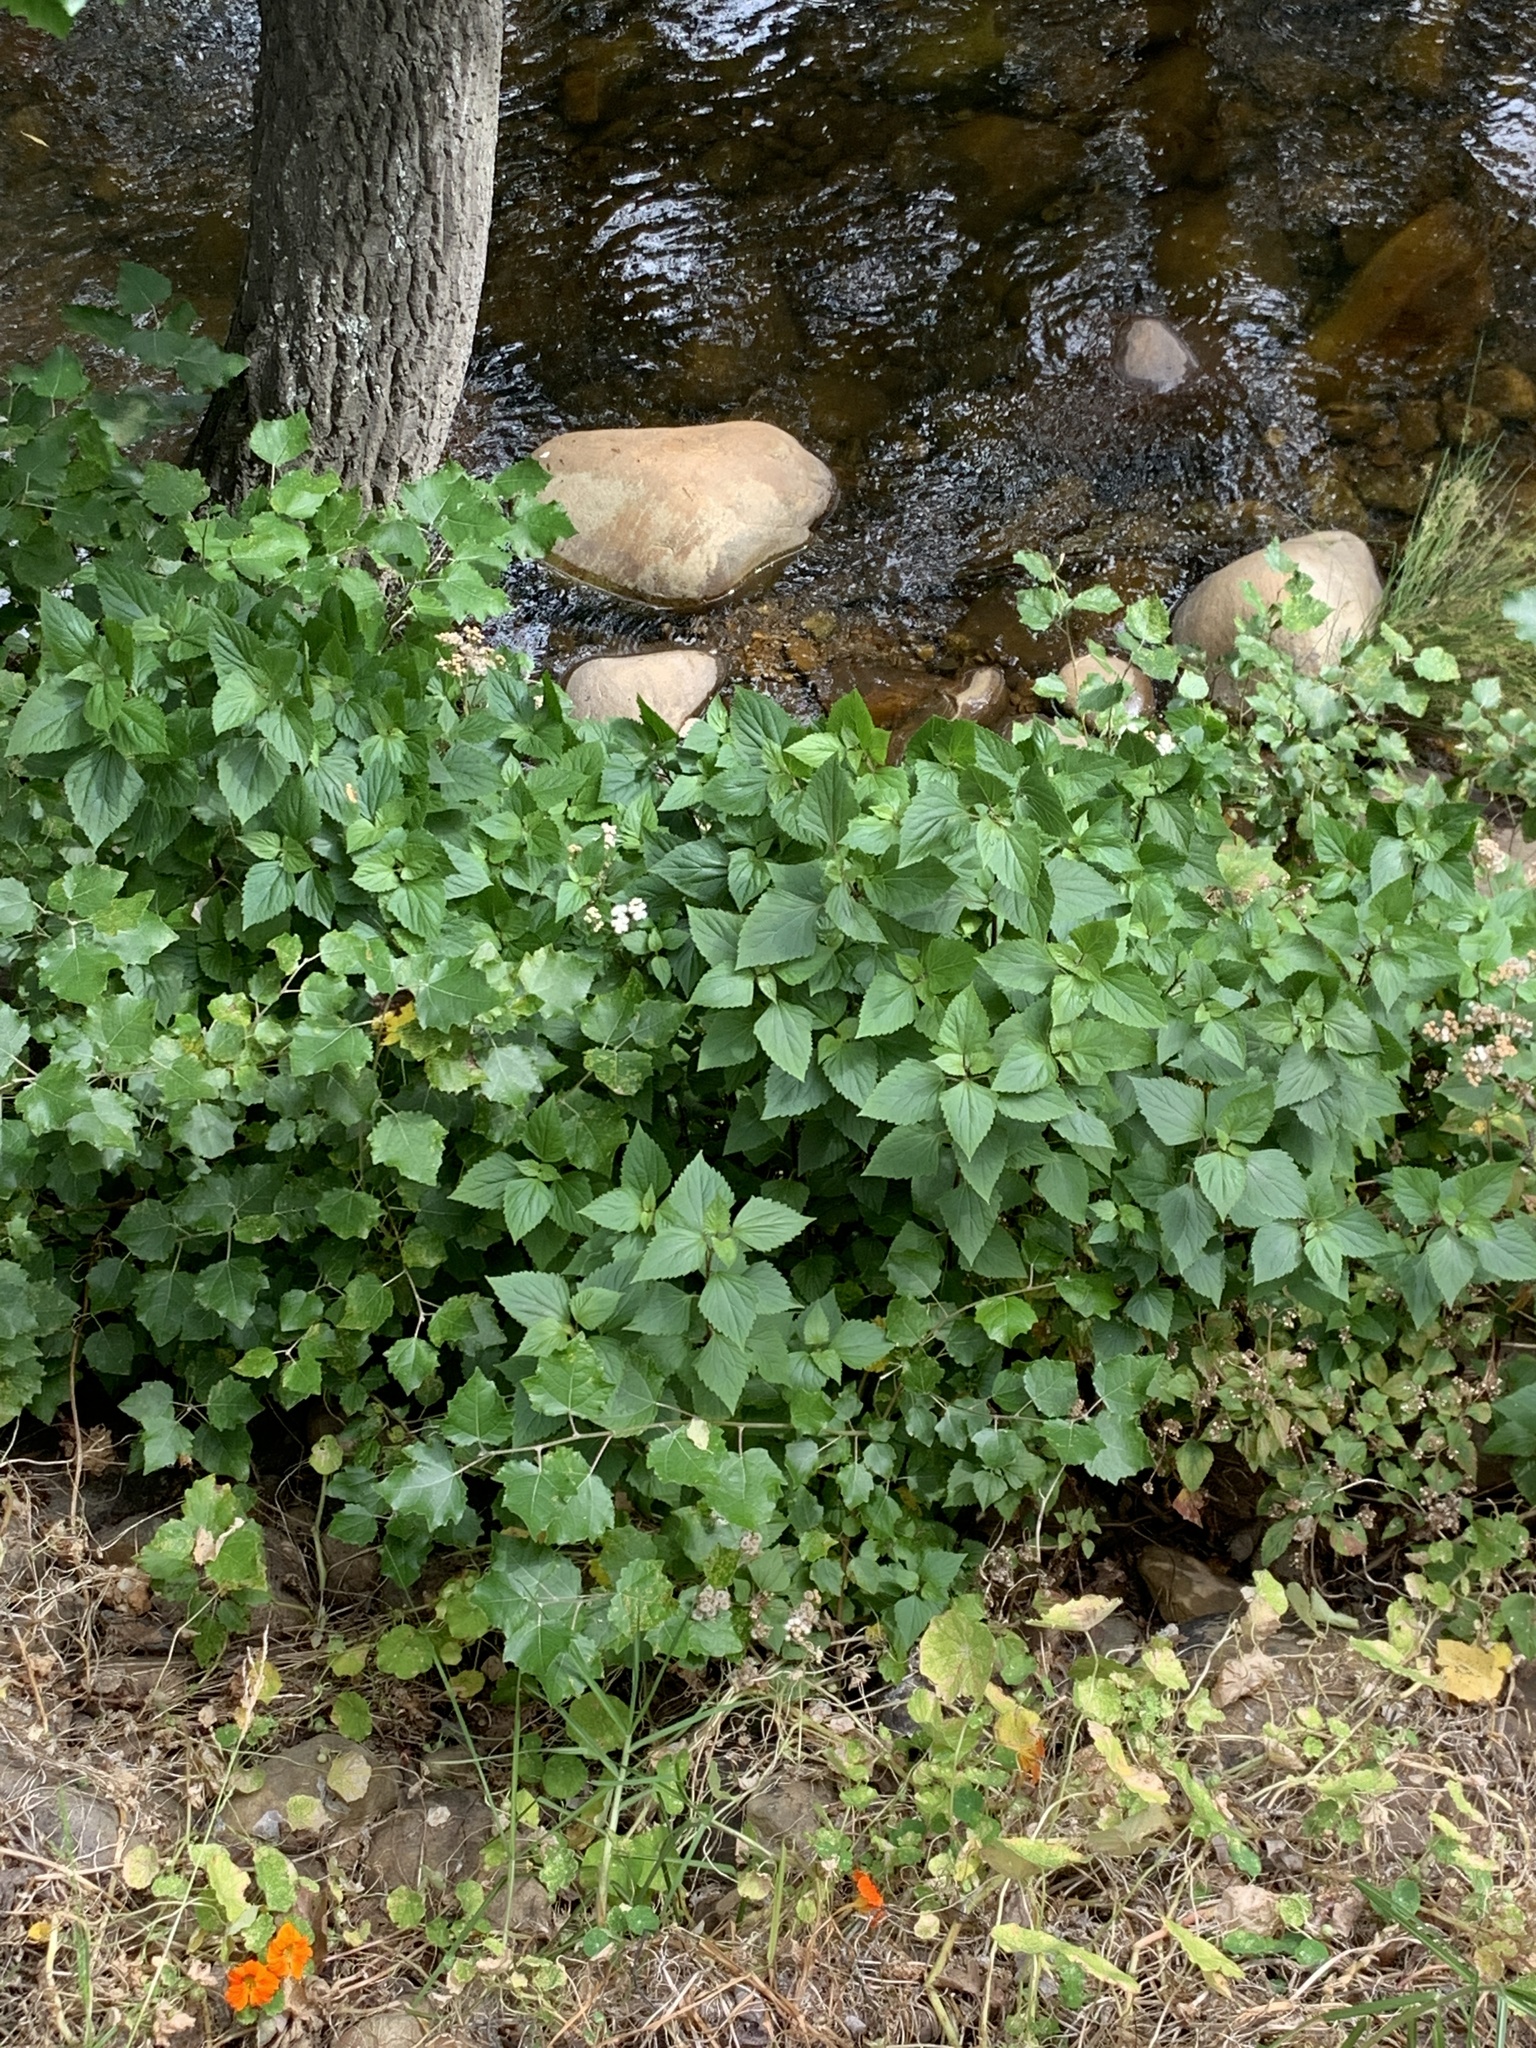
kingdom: Plantae
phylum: Tracheophyta
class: Magnoliopsida
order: Asterales
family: Asteraceae
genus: Ageratina
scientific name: Ageratina adenophora
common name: Sticky snakeroot
